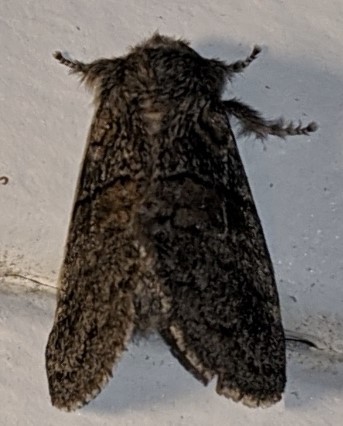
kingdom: Animalia
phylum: Arthropoda
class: Insecta
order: Lepidoptera
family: Notodontidae
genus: Gluphisia
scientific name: Gluphisia septentrionis
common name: Common gluphisia
